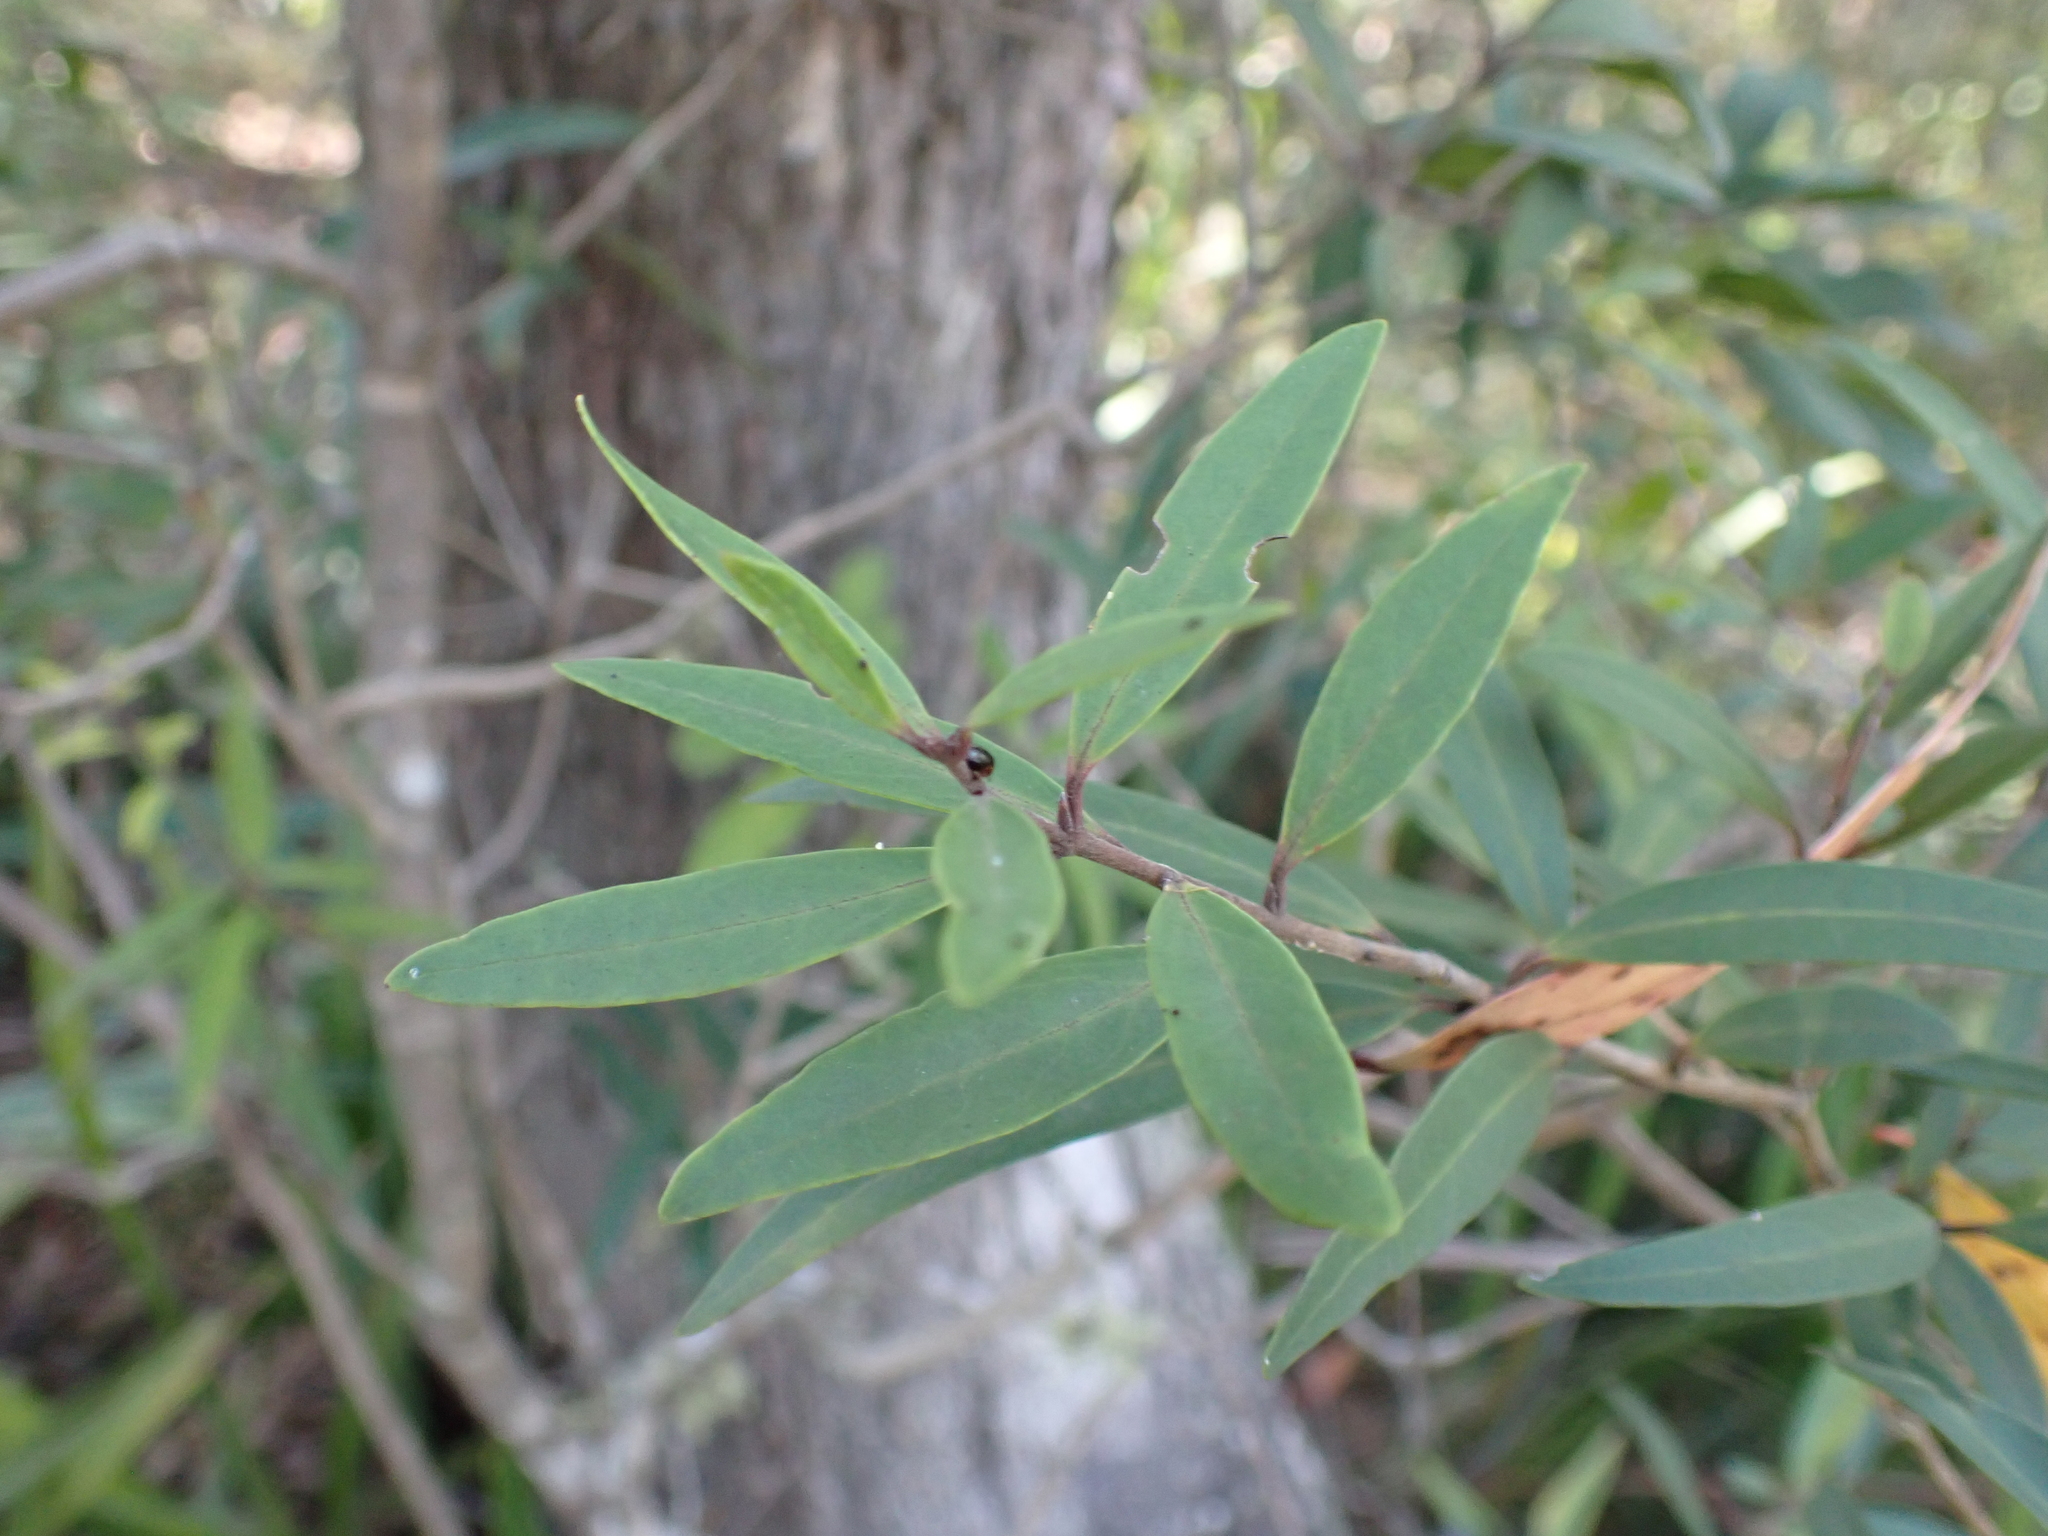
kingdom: Plantae
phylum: Tracheophyta
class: Magnoliopsida
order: Lamiales
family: Oleaceae
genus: Notelaea
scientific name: Notelaea ligustrina
